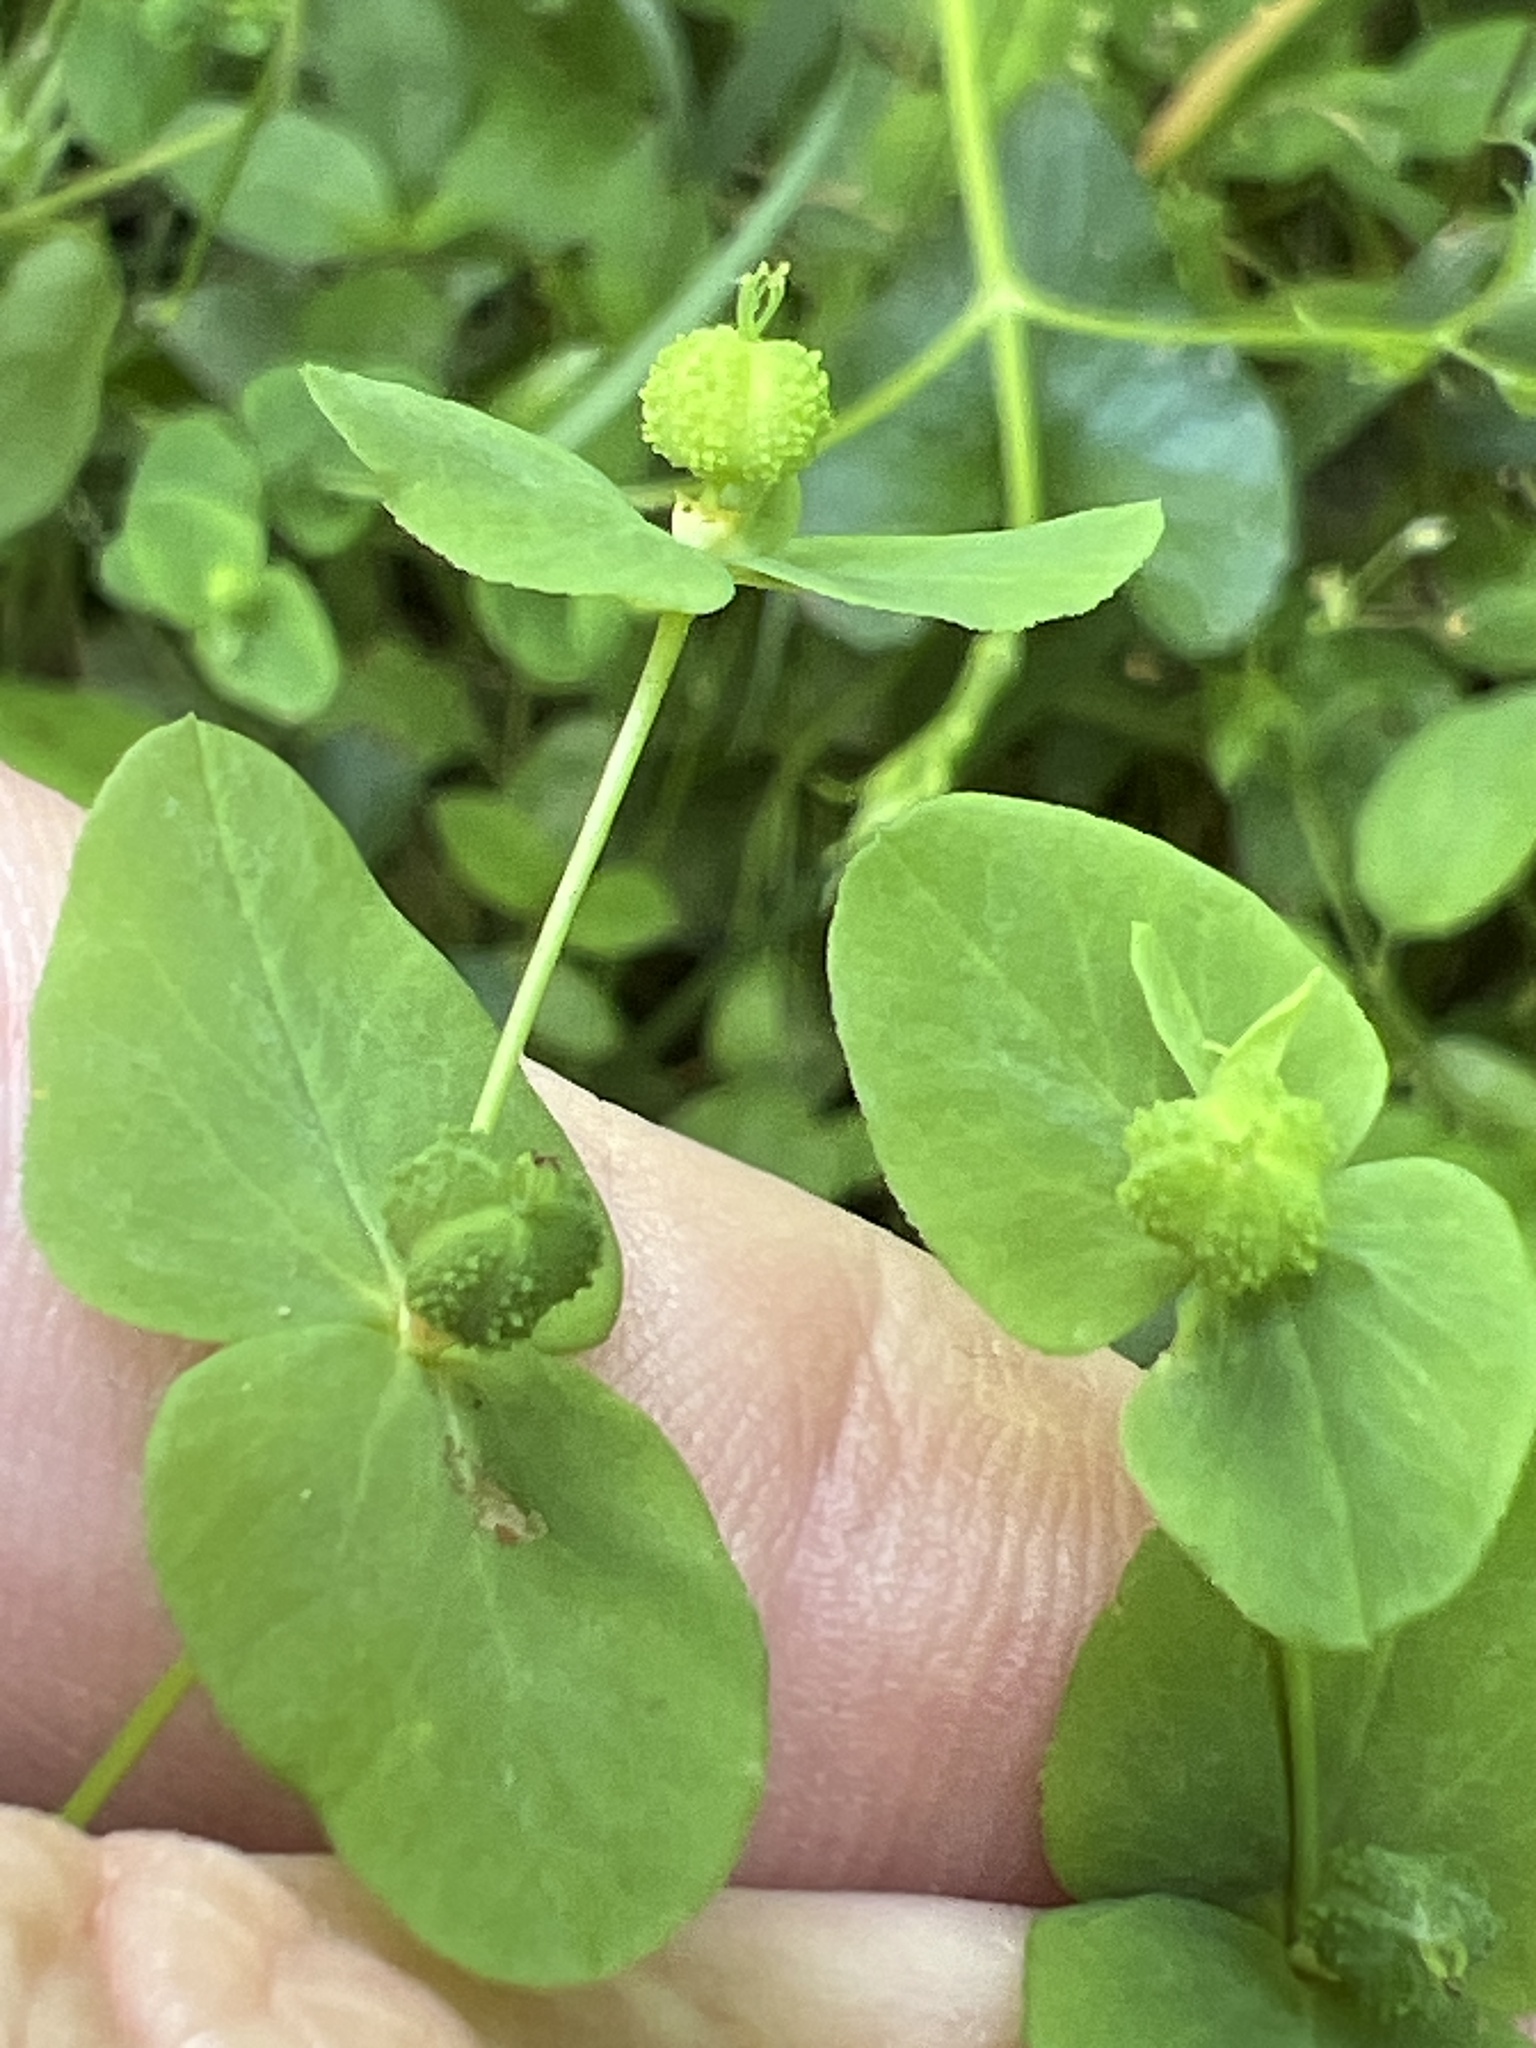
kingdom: Plantae
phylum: Tracheophyta
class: Magnoliopsida
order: Malpighiales
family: Euphorbiaceae
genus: Euphorbia
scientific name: Euphorbia spathulata
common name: Blunt spurge
